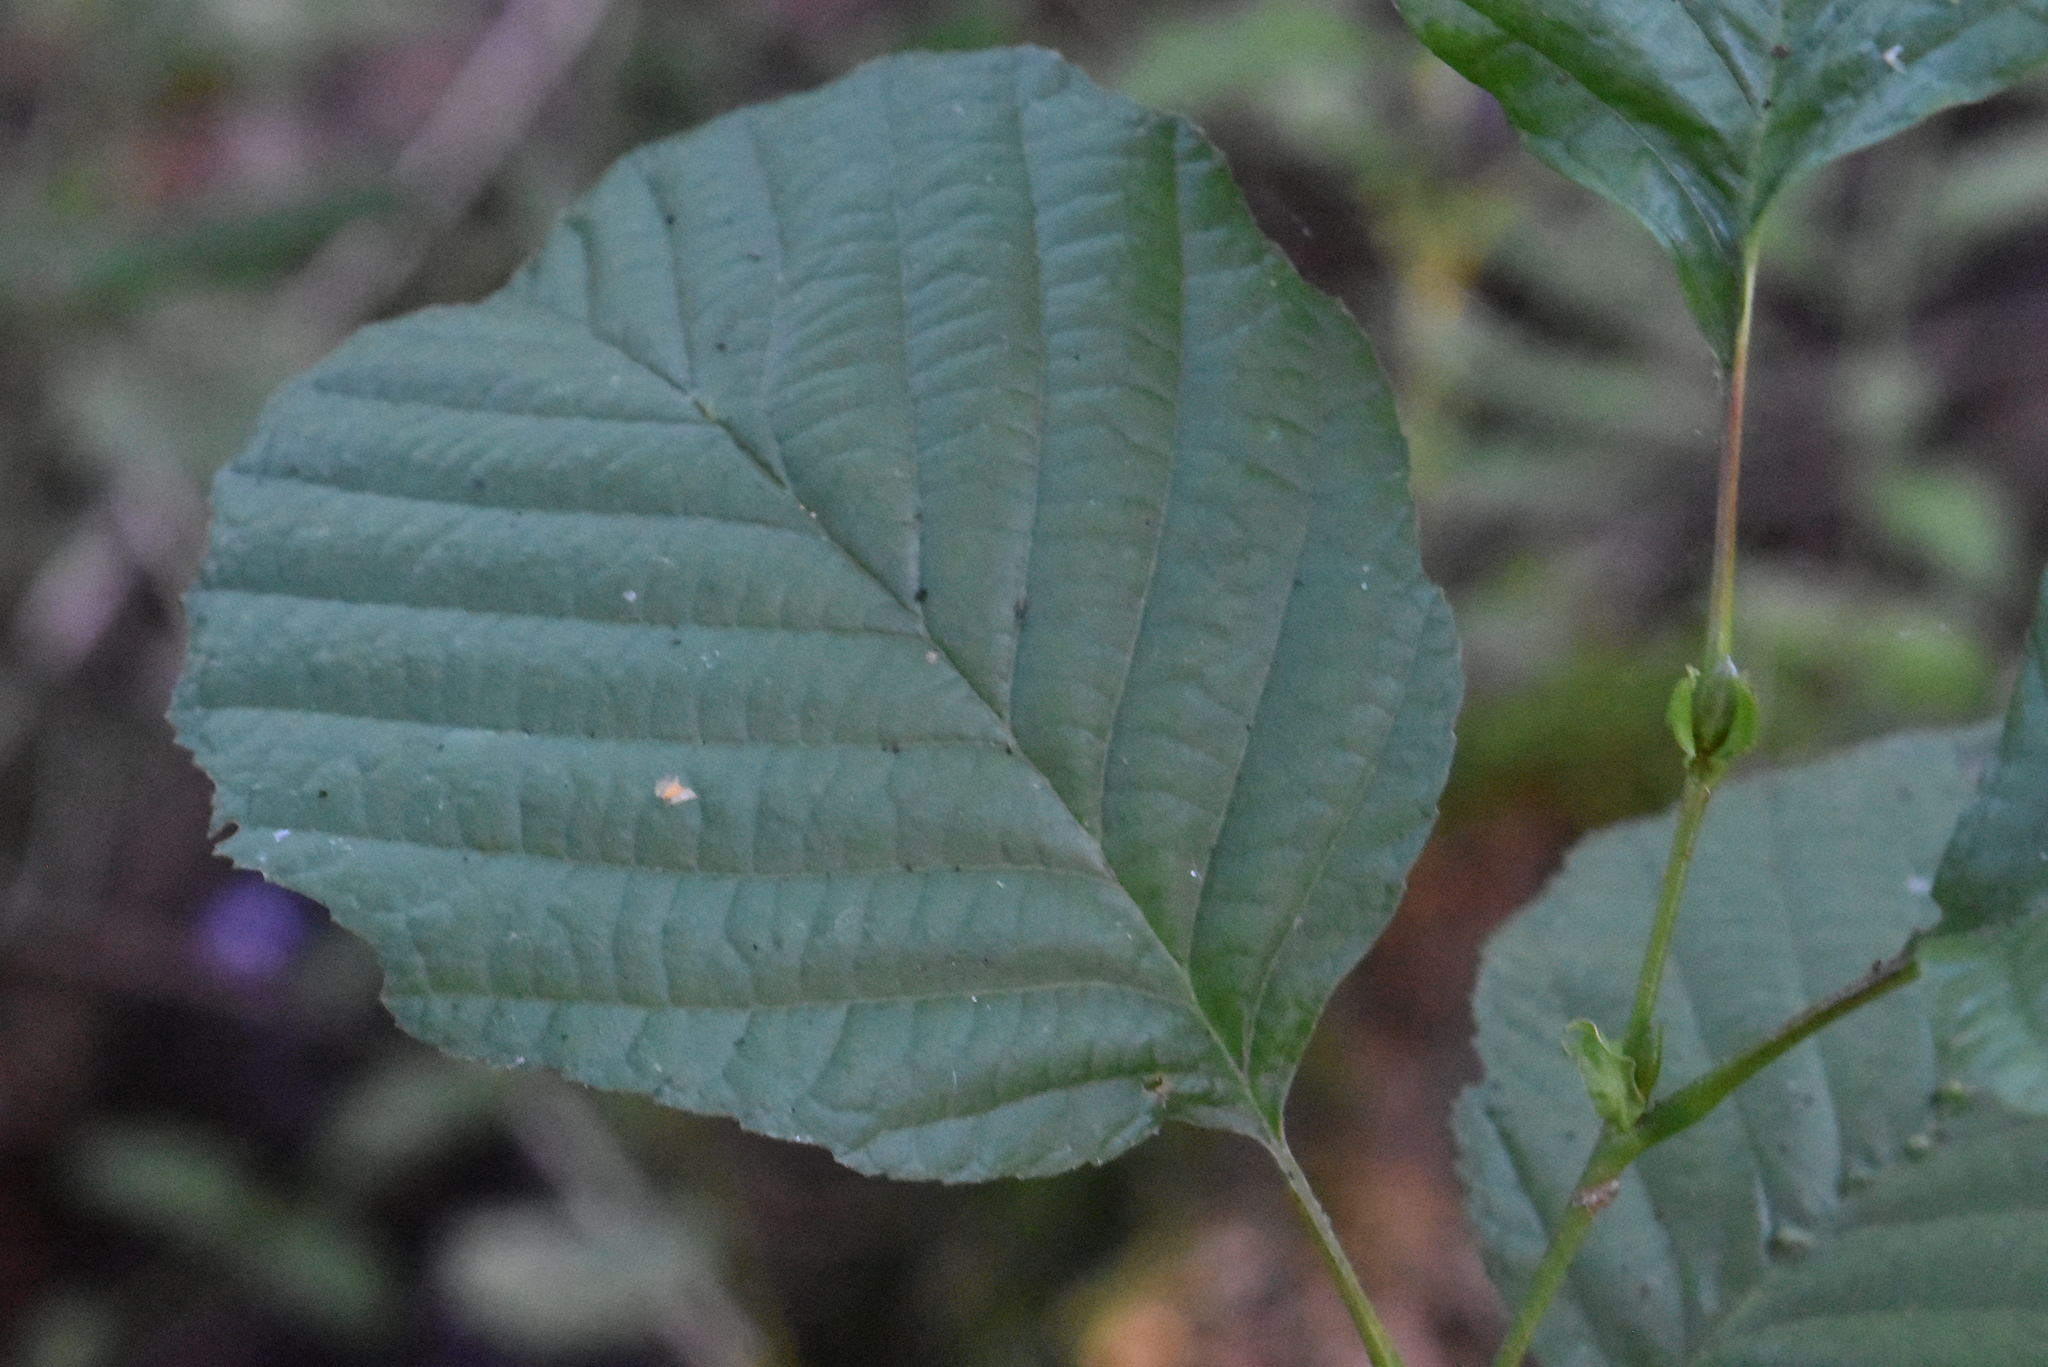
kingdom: Plantae
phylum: Tracheophyta
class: Magnoliopsida
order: Fagales
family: Betulaceae
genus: Alnus
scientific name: Alnus glutinosa
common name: Black alder
